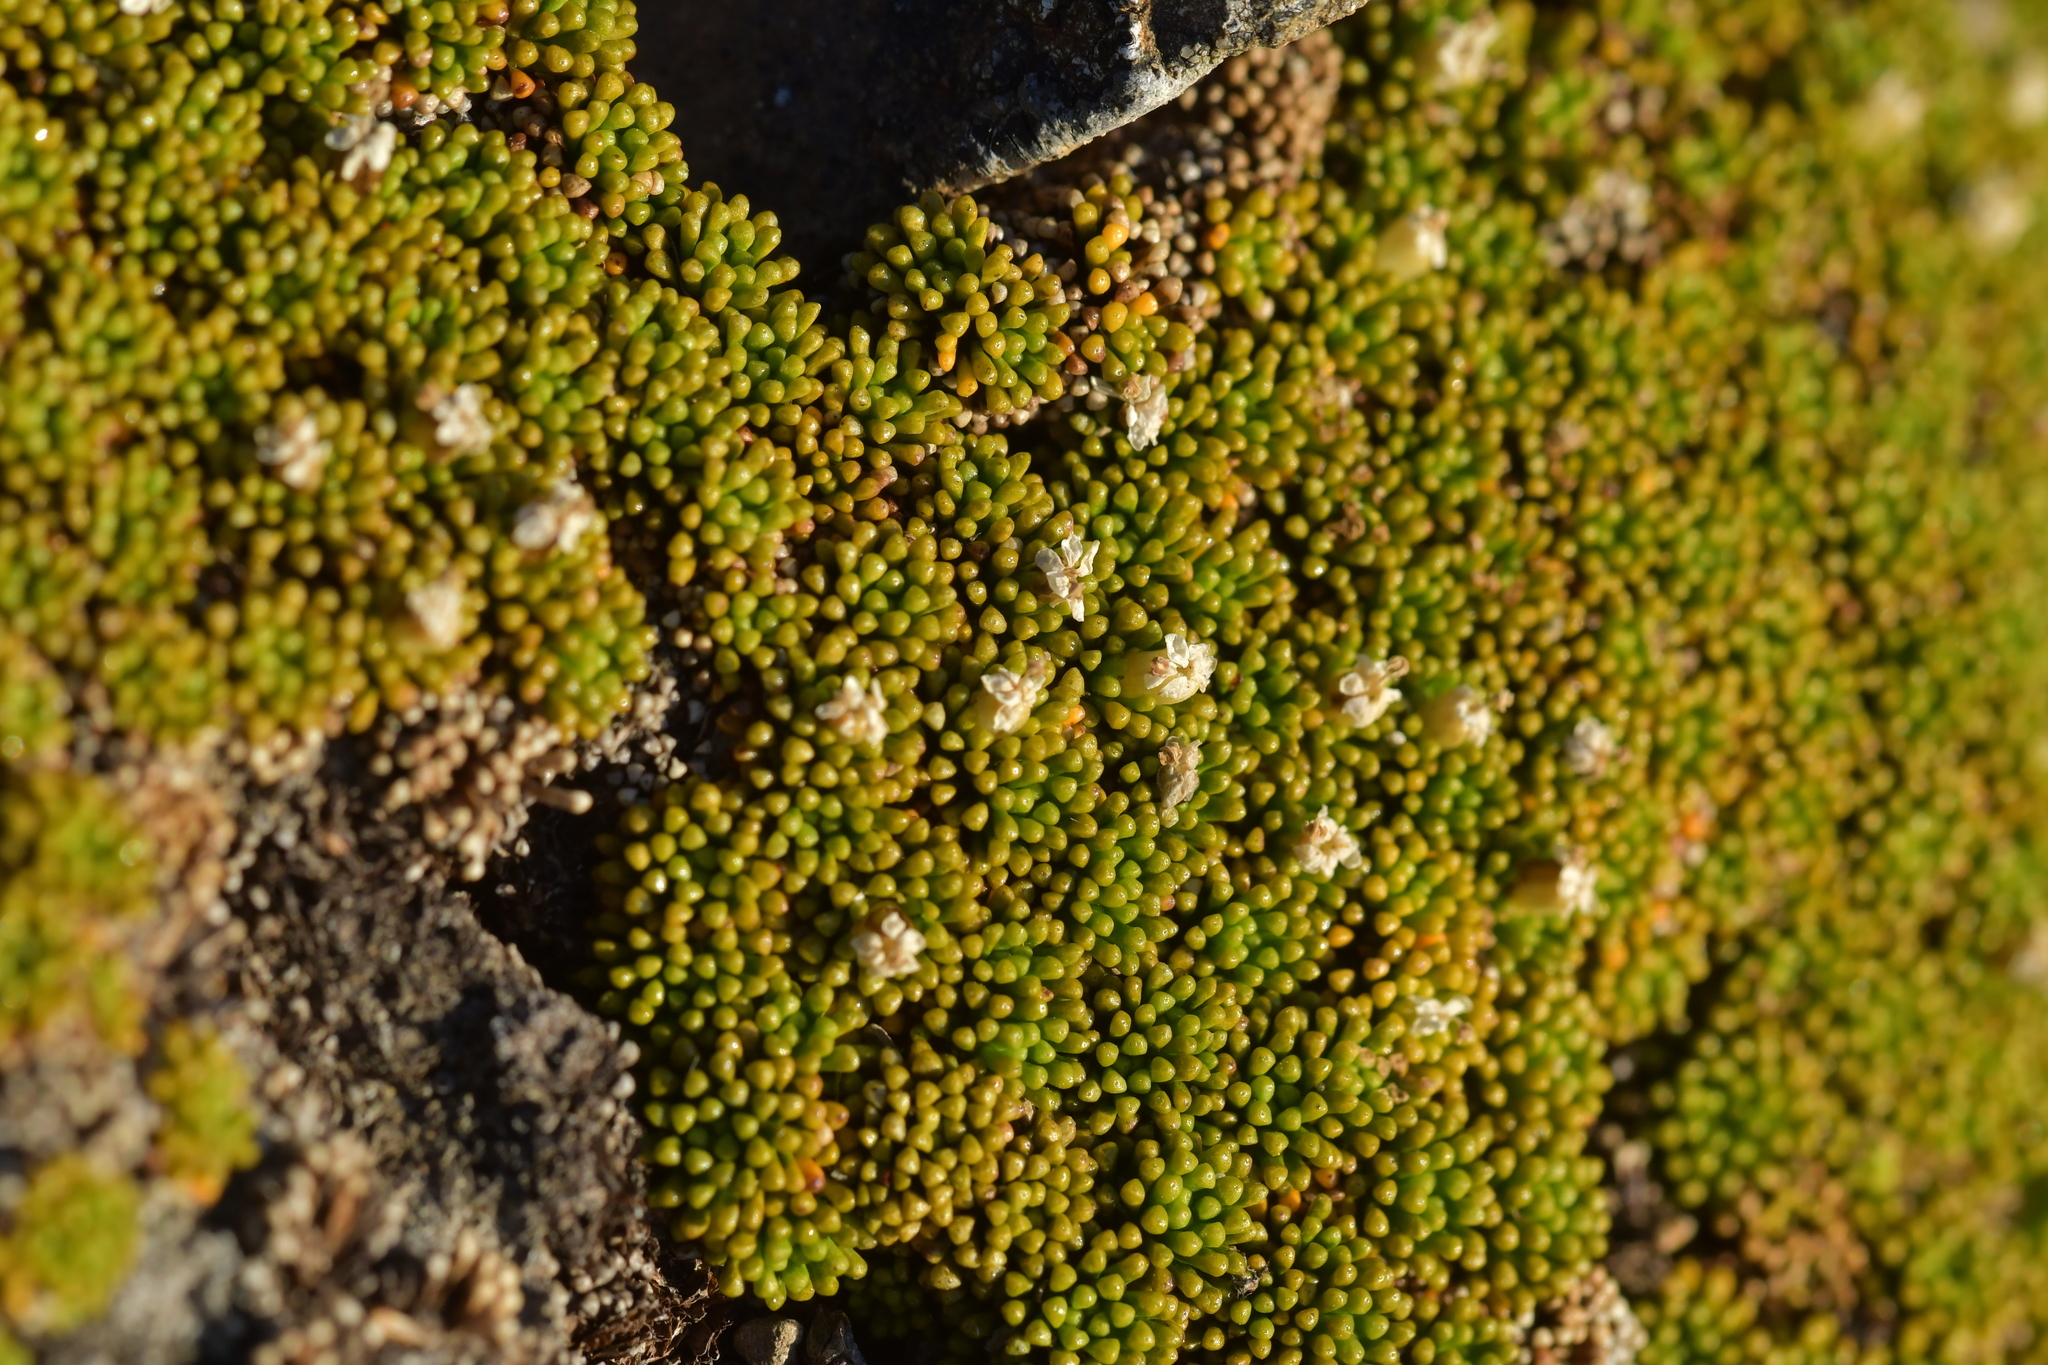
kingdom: Plantae
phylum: Tracheophyta
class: Magnoliopsida
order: Asterales
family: Stylidiaceae
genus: Phyllachne
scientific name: Phyllachne colensoi
